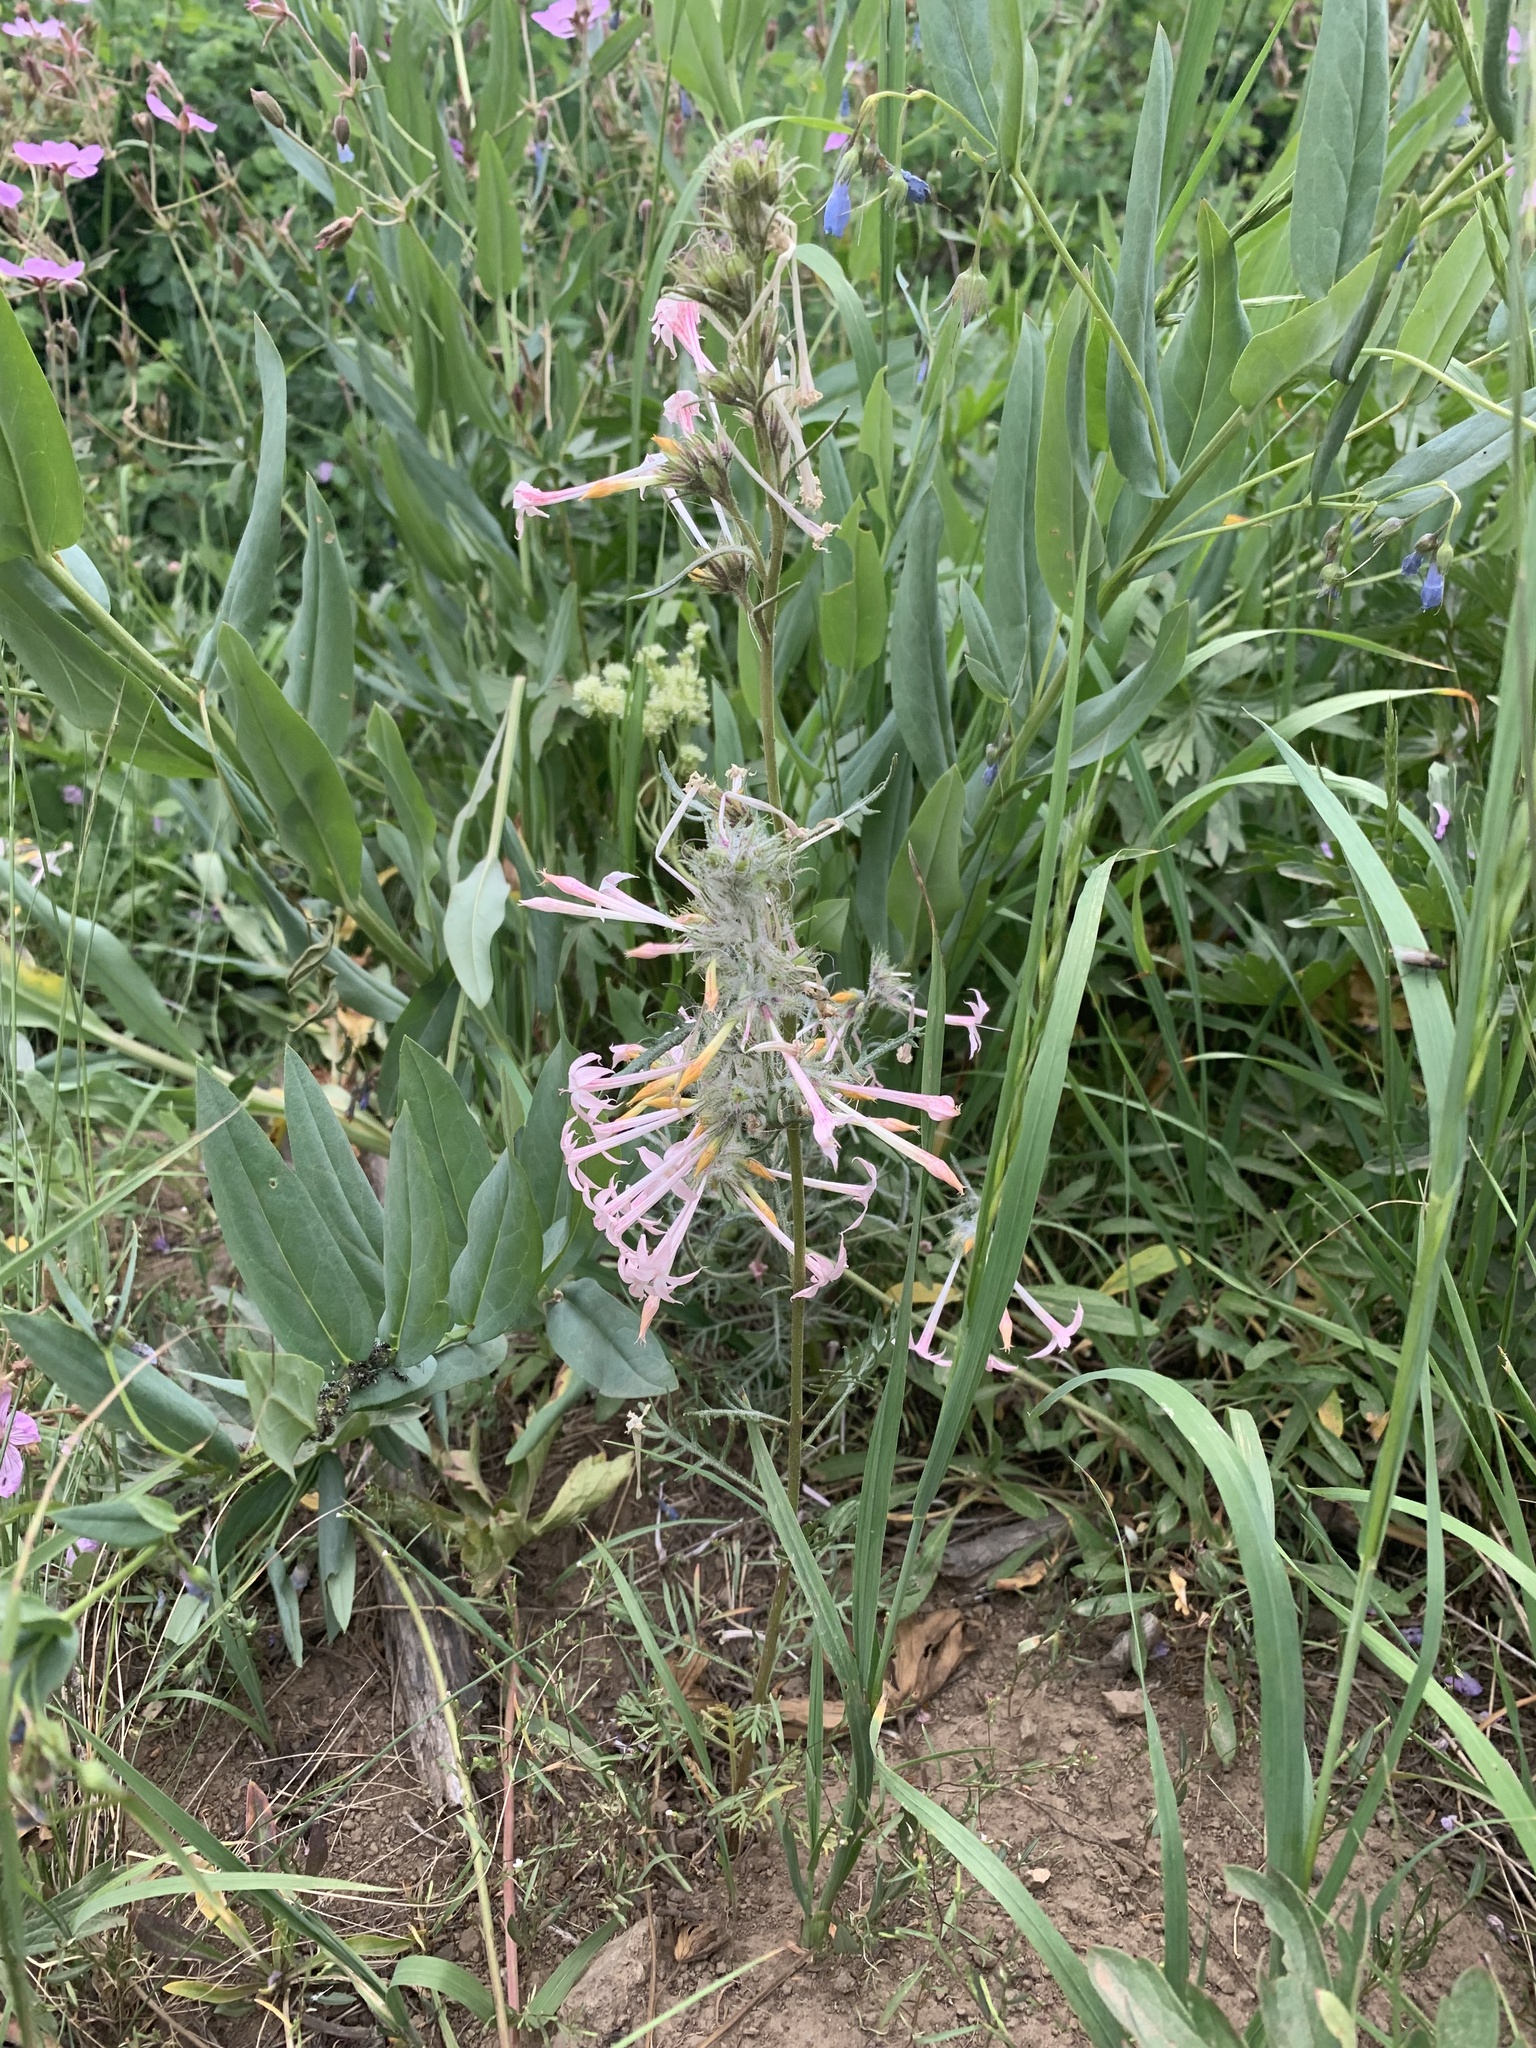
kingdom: Plantae
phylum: Tracheophyta
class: Magnoliopsida
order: Ericales
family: Polemoniaceae
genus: Ipomopsis
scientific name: Ipomopsis tenuituba
